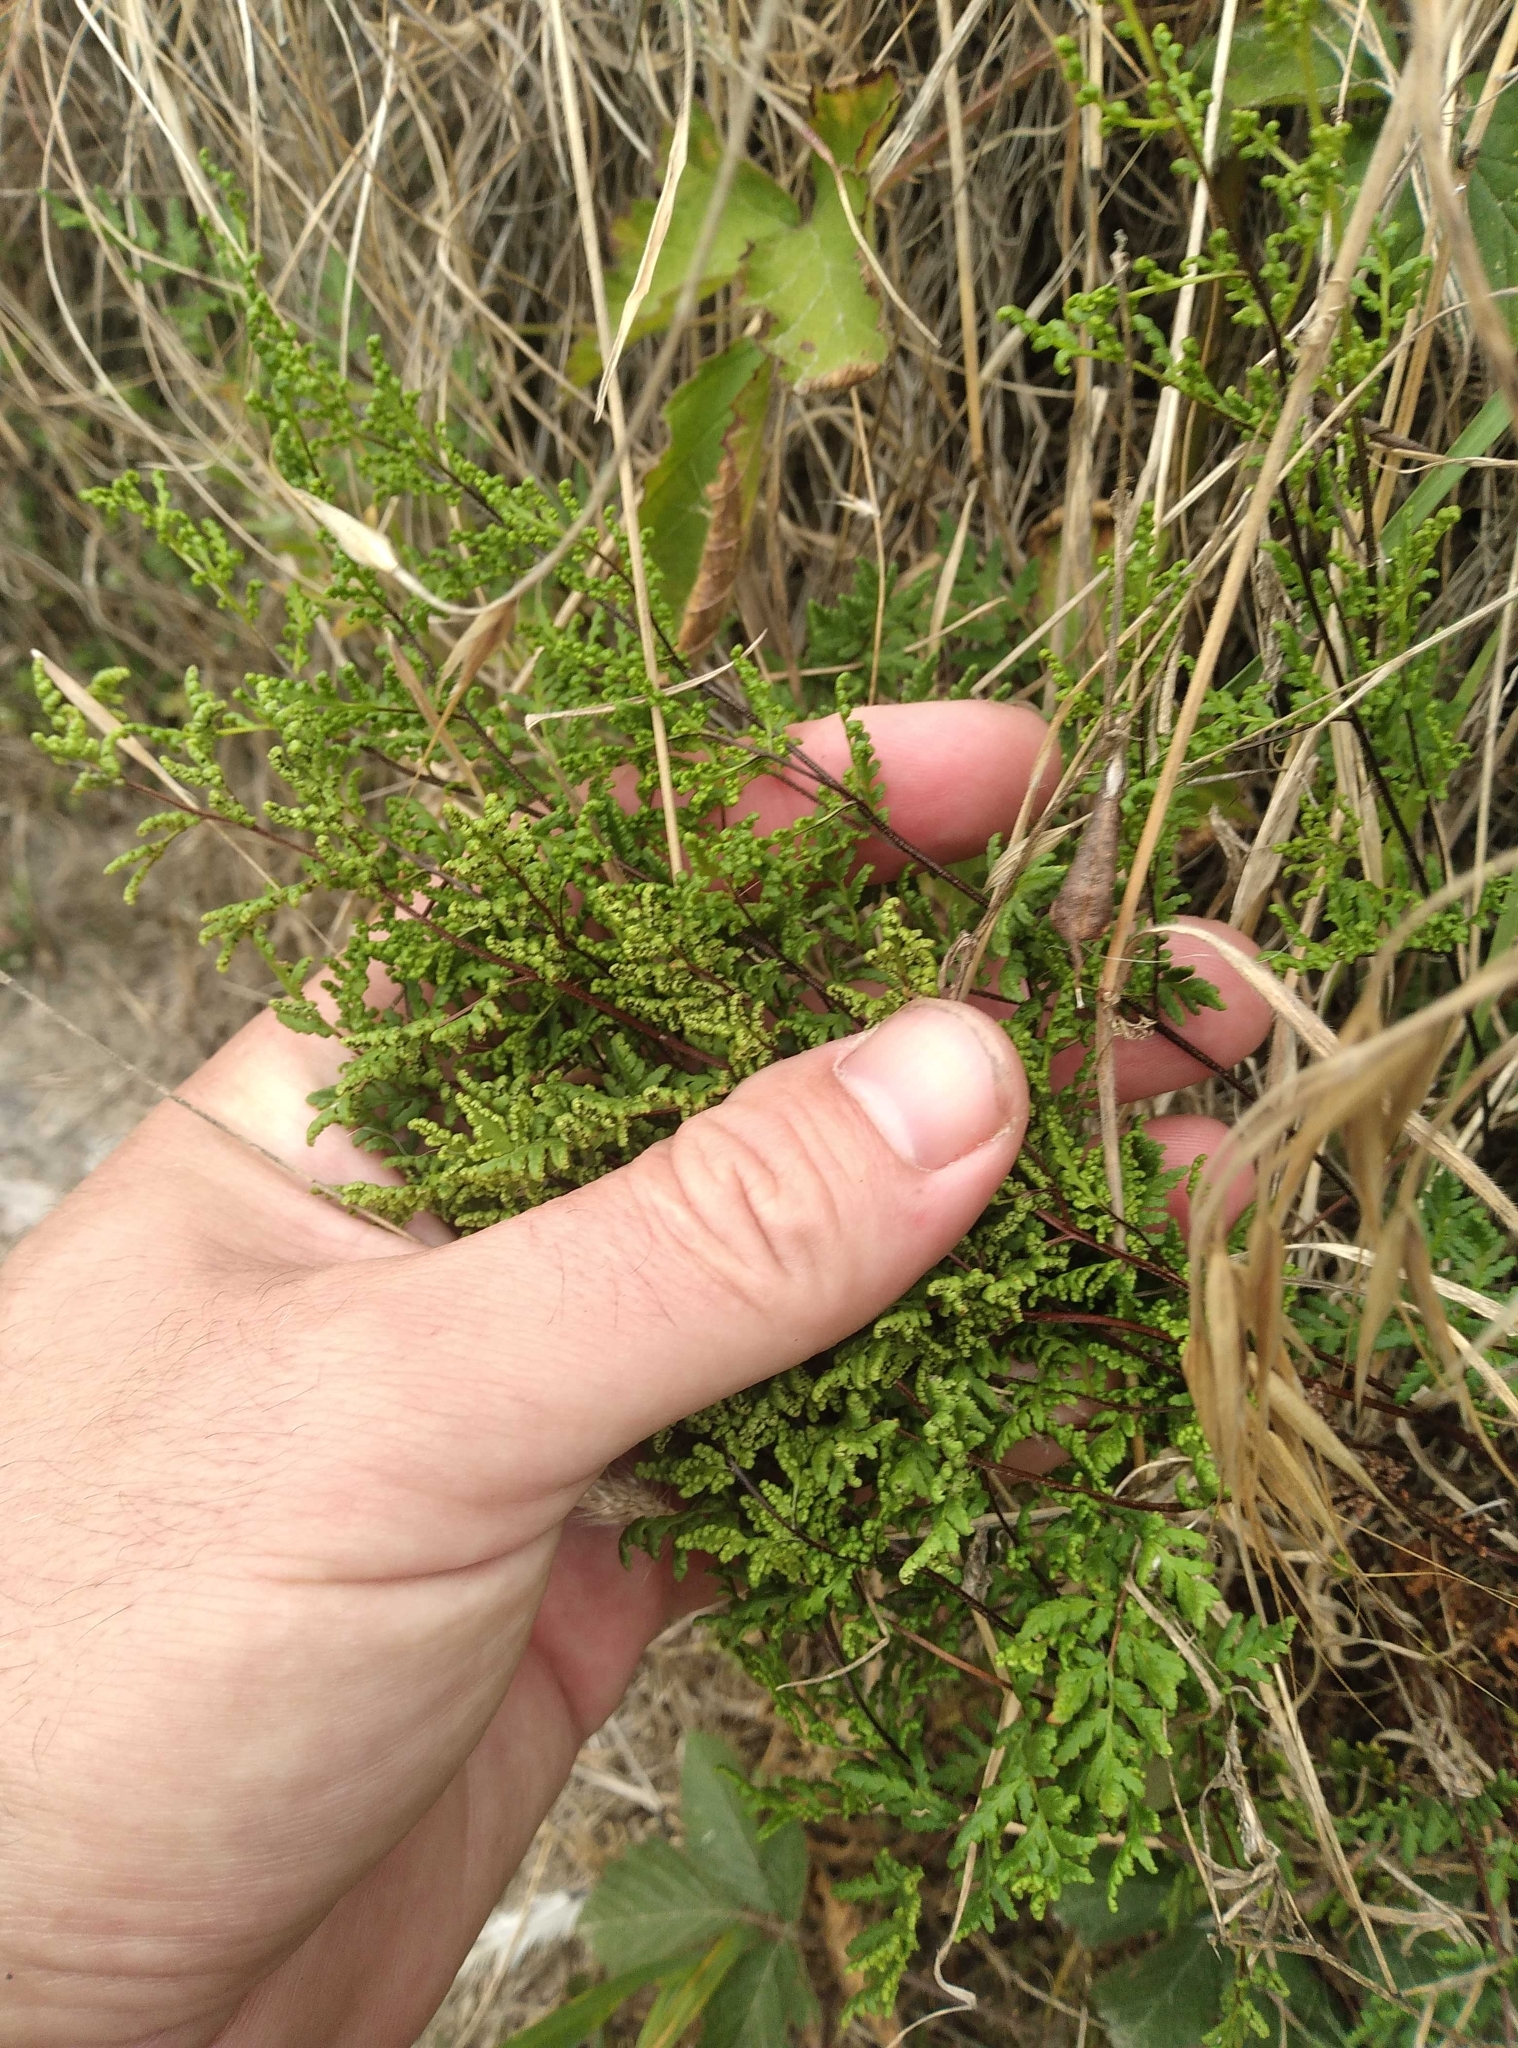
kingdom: Plantae
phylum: Tracheophyta
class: Polypodiopsida
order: Polypodiales
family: Pteridaceae
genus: Cheilanthes
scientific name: Cheilanthes sieberi
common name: Mulga fern
